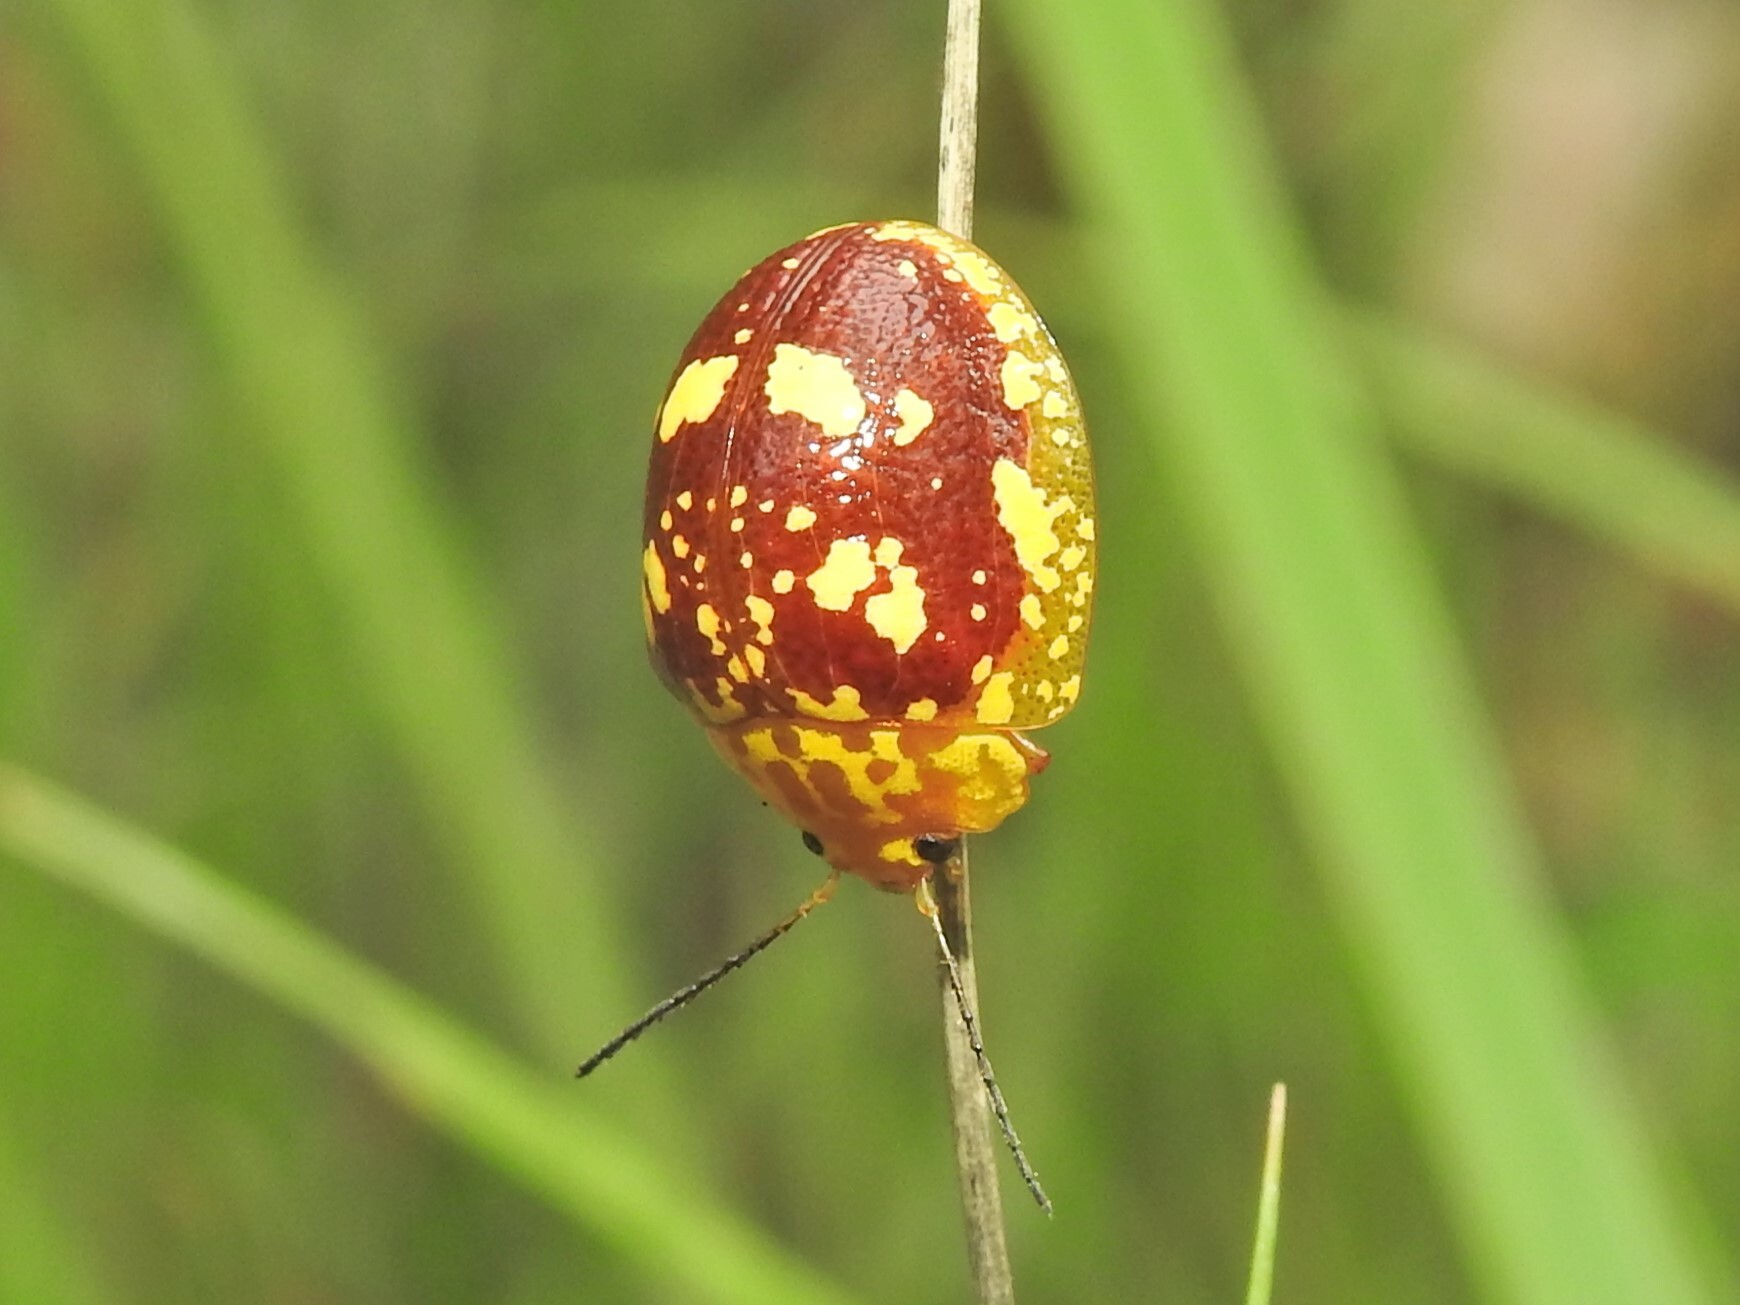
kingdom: Animalia
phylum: Arthropoda
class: Insecta
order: Coleoptera
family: Chrysomelidae
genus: Paropsis
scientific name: Paropsis maculata
